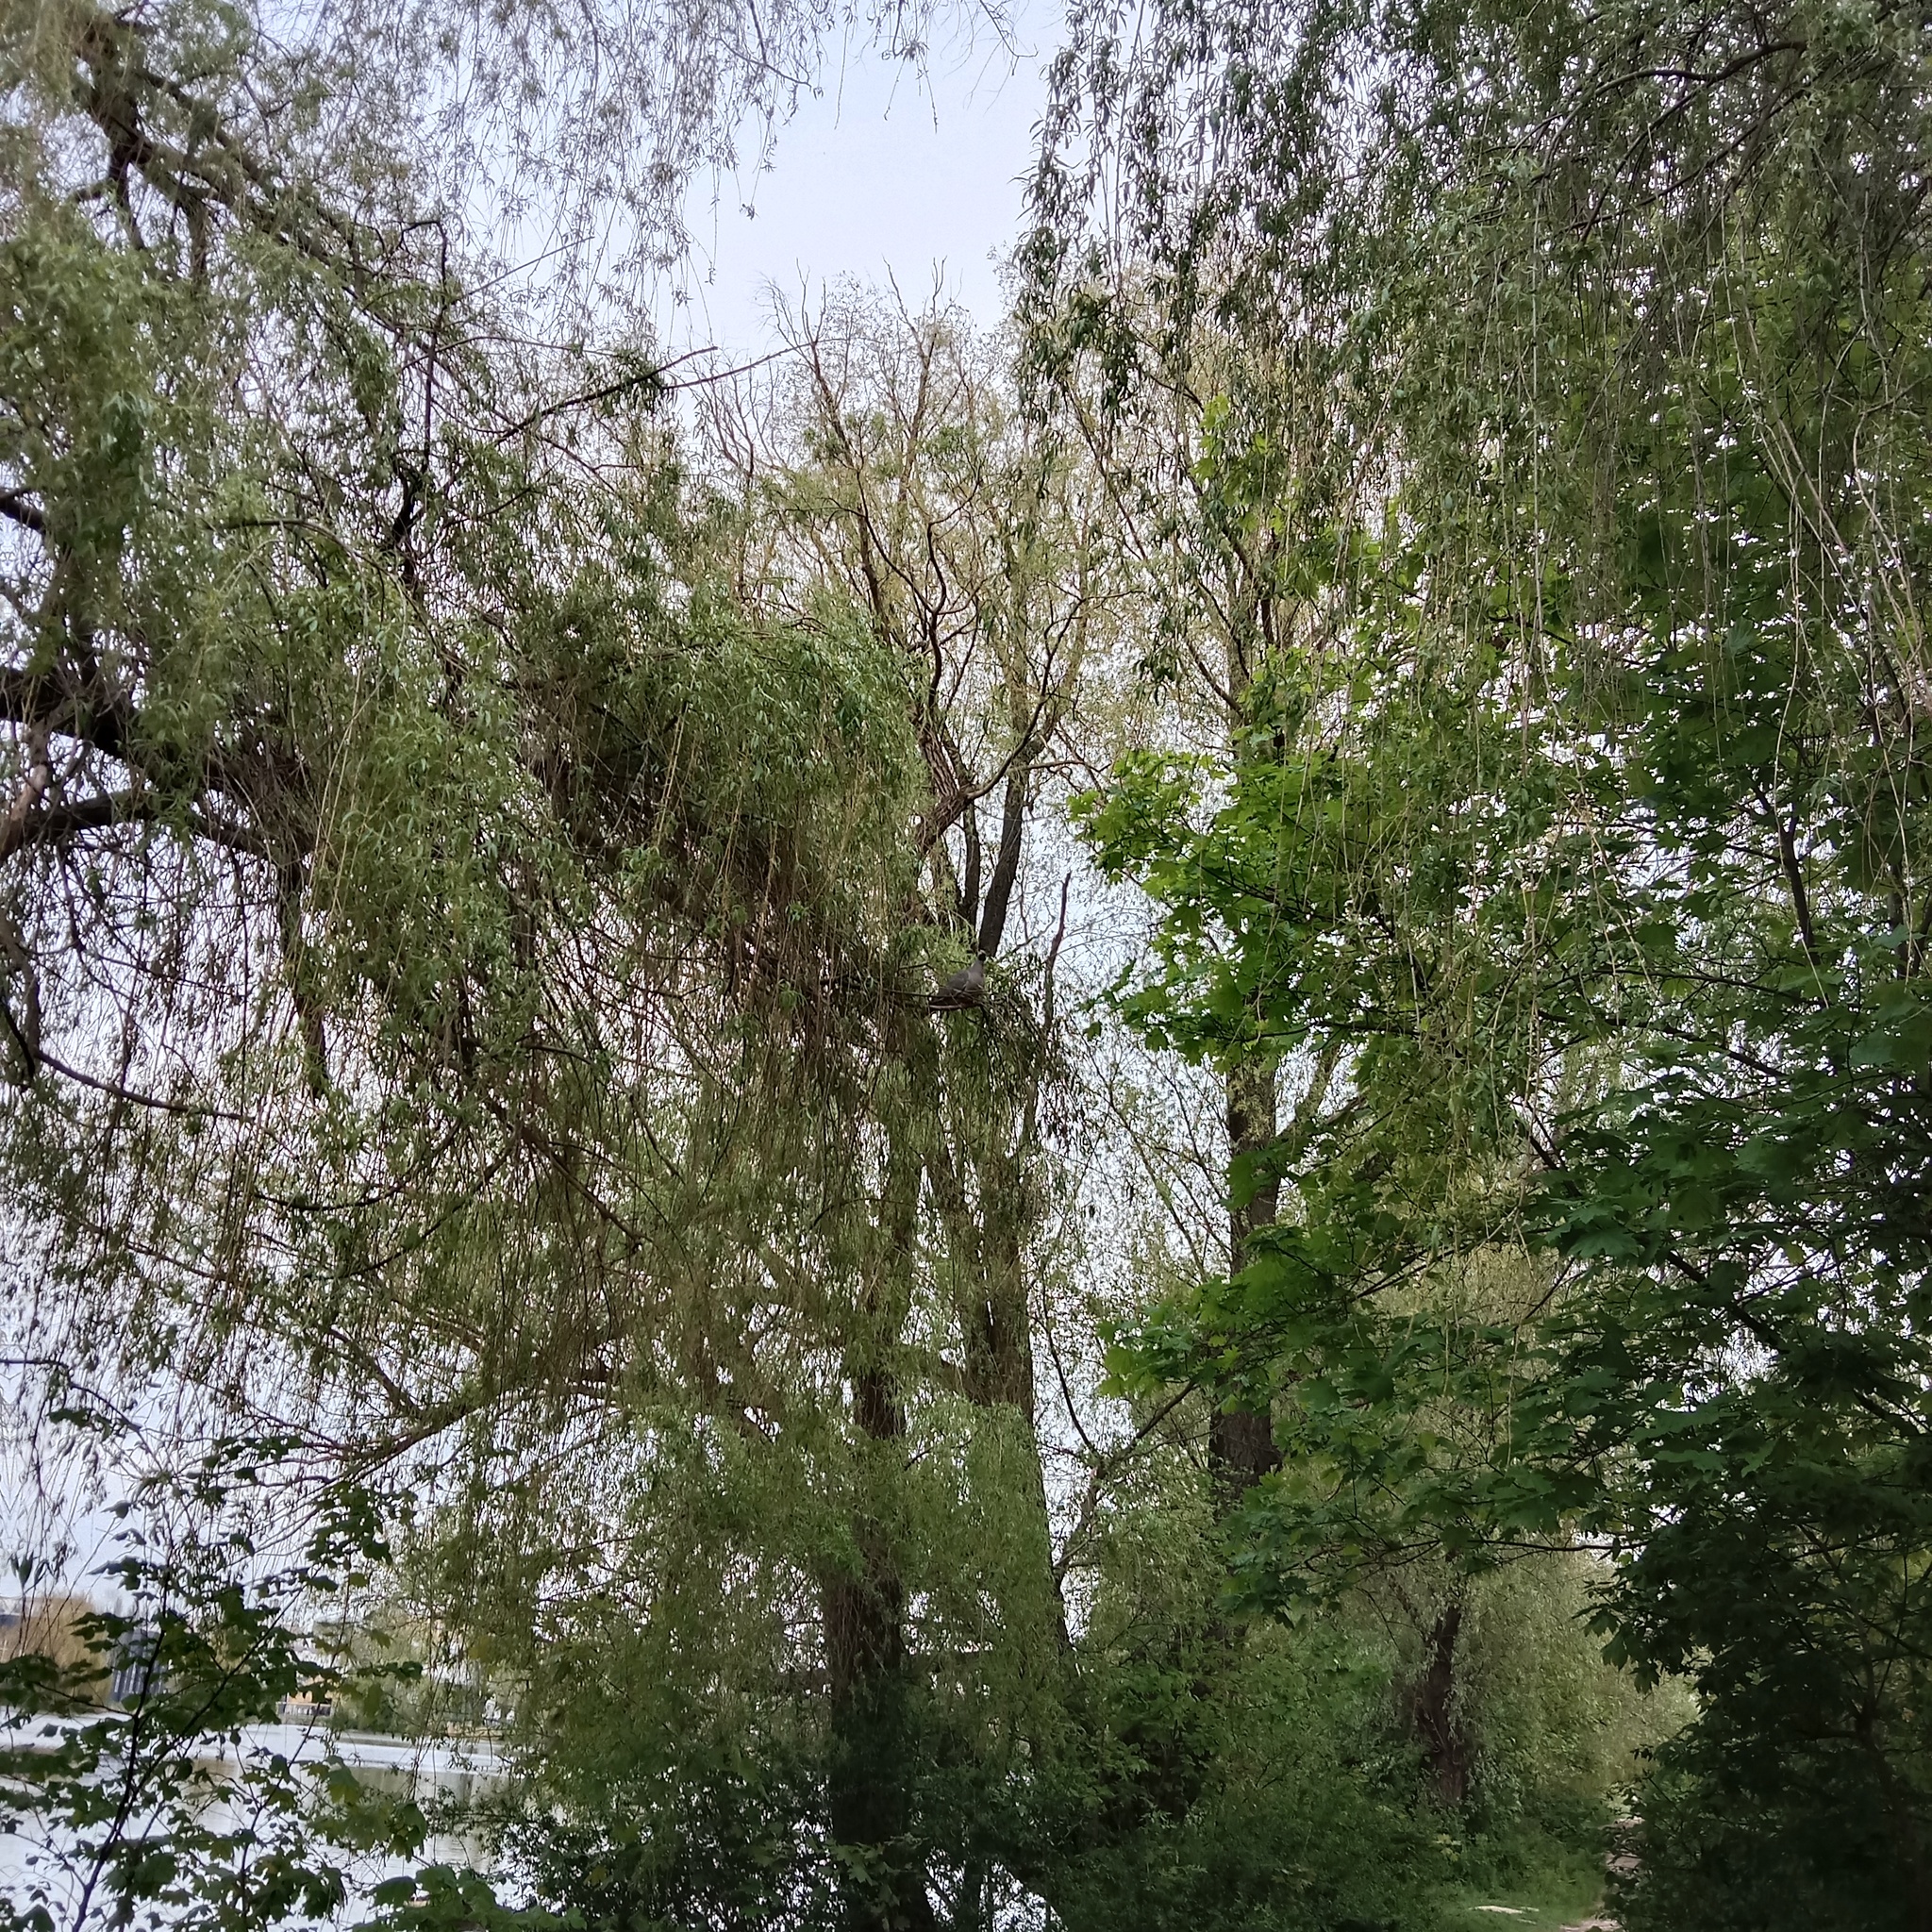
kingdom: Animalia
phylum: Chordata
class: Aves
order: Columbiformes
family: Columbidae
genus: Columba
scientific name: Columba palumbus
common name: Common wood pigeon
